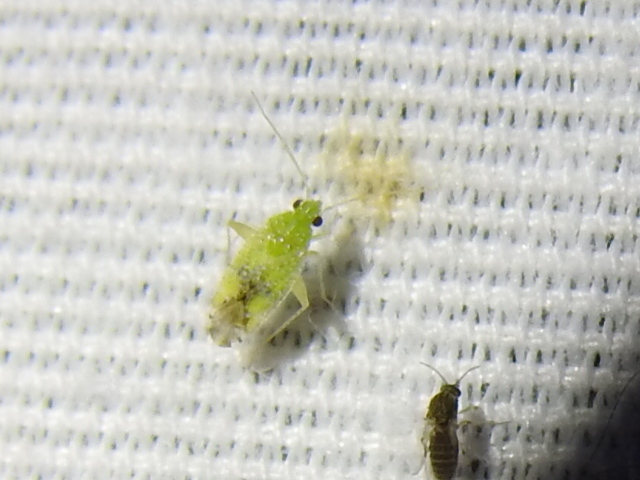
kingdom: Animalia
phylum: Arthropoda
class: Insecta
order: Hemiptera
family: Miridae
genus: Keltonia
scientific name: Keltonia tuckeri
